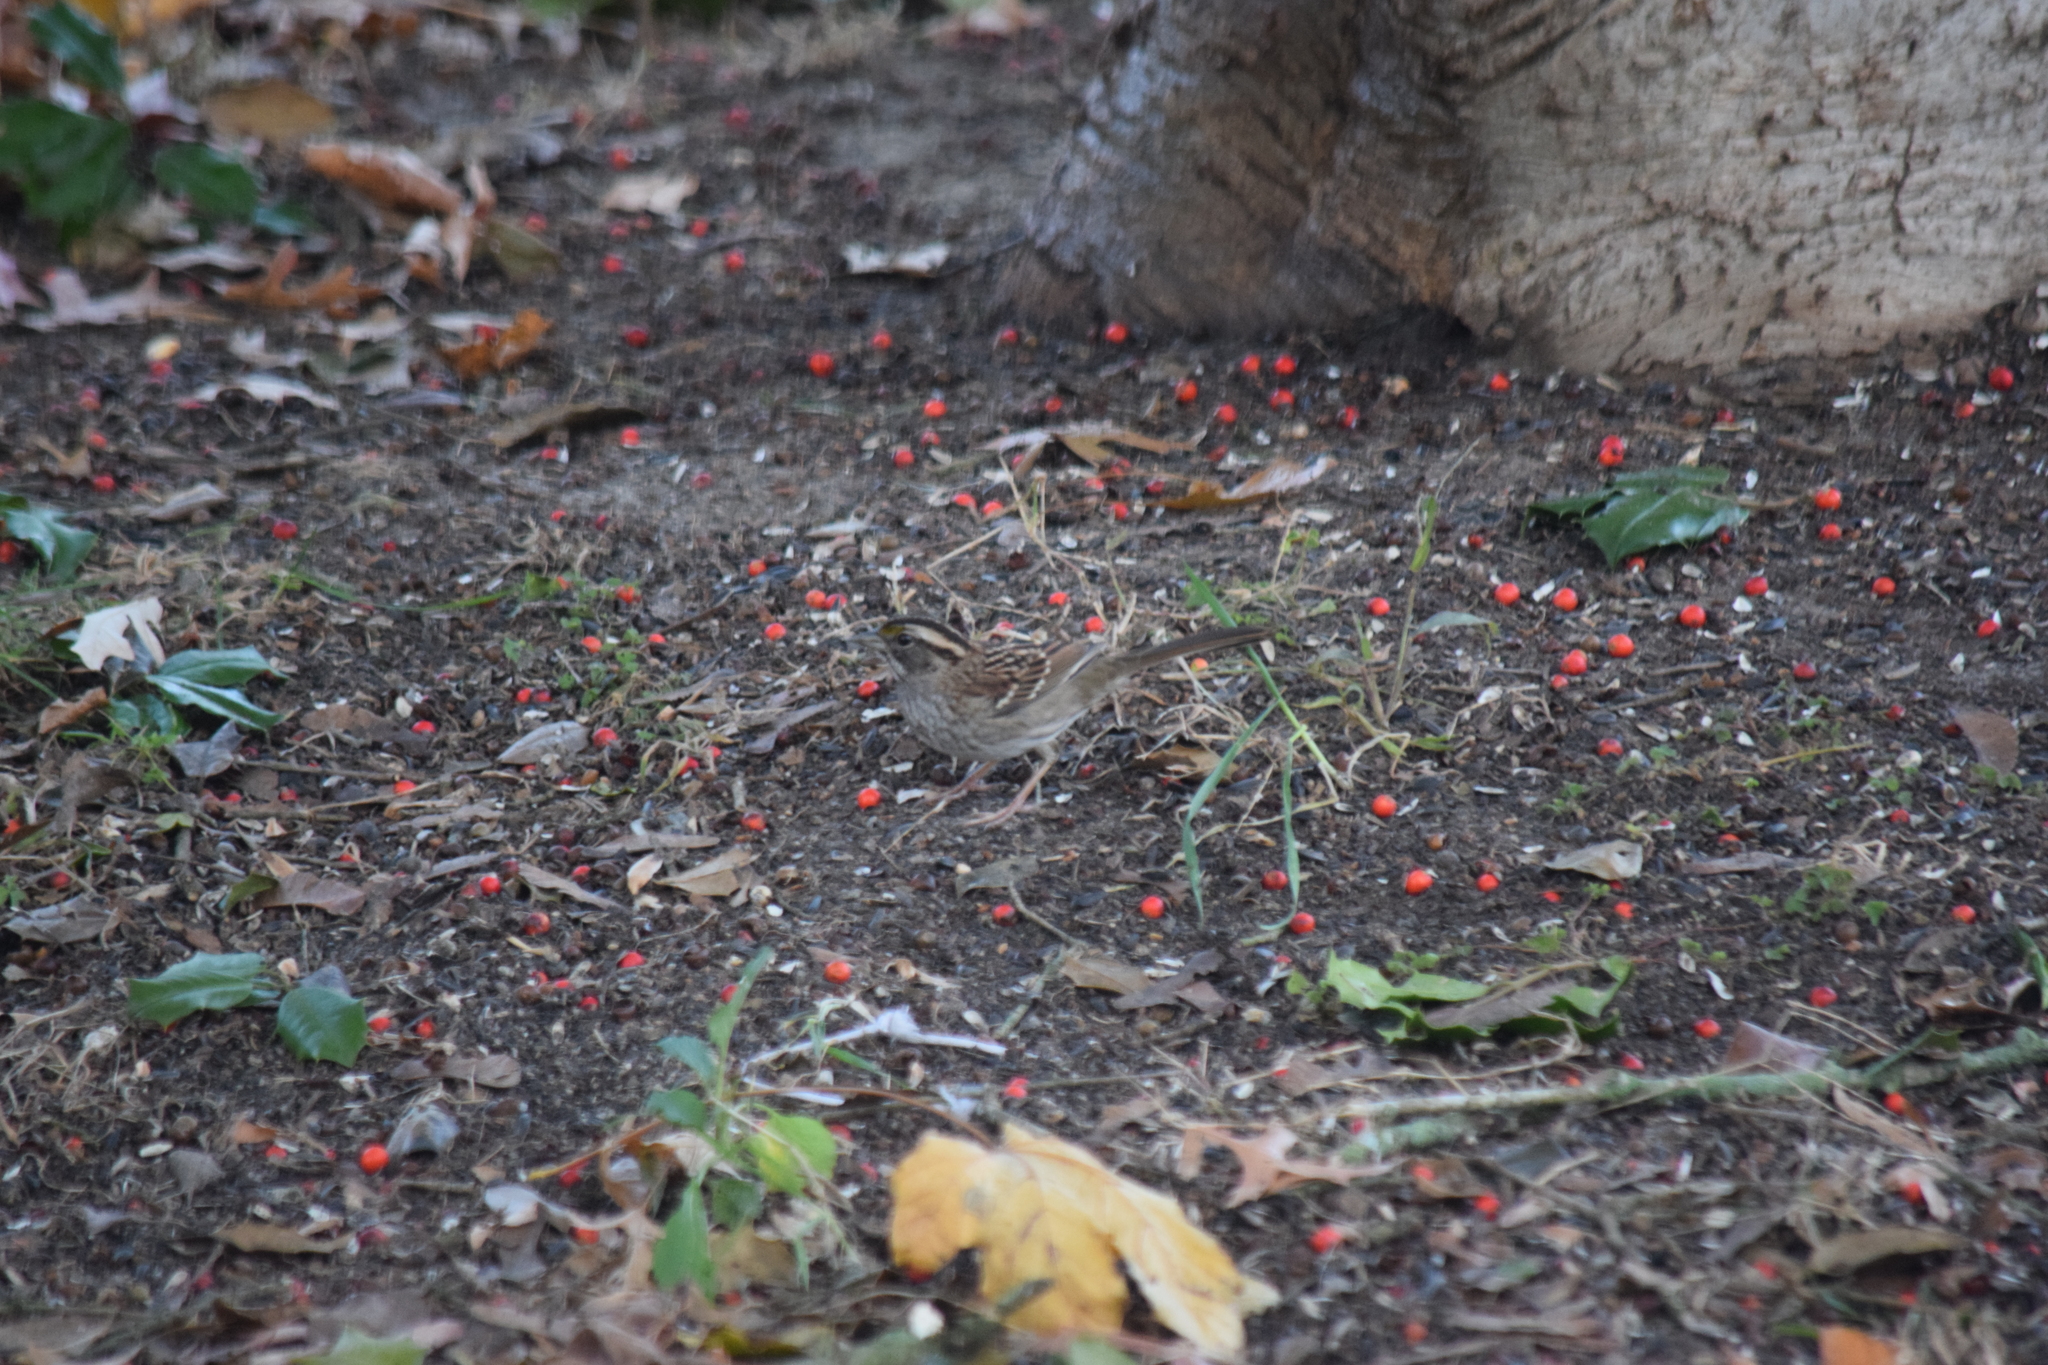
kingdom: Animalia
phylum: Chordata
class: Aves
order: Passeriformes
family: Passerellidae
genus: Zonotrichia
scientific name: Zonotrichia albicollis
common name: White-throated sparrow
